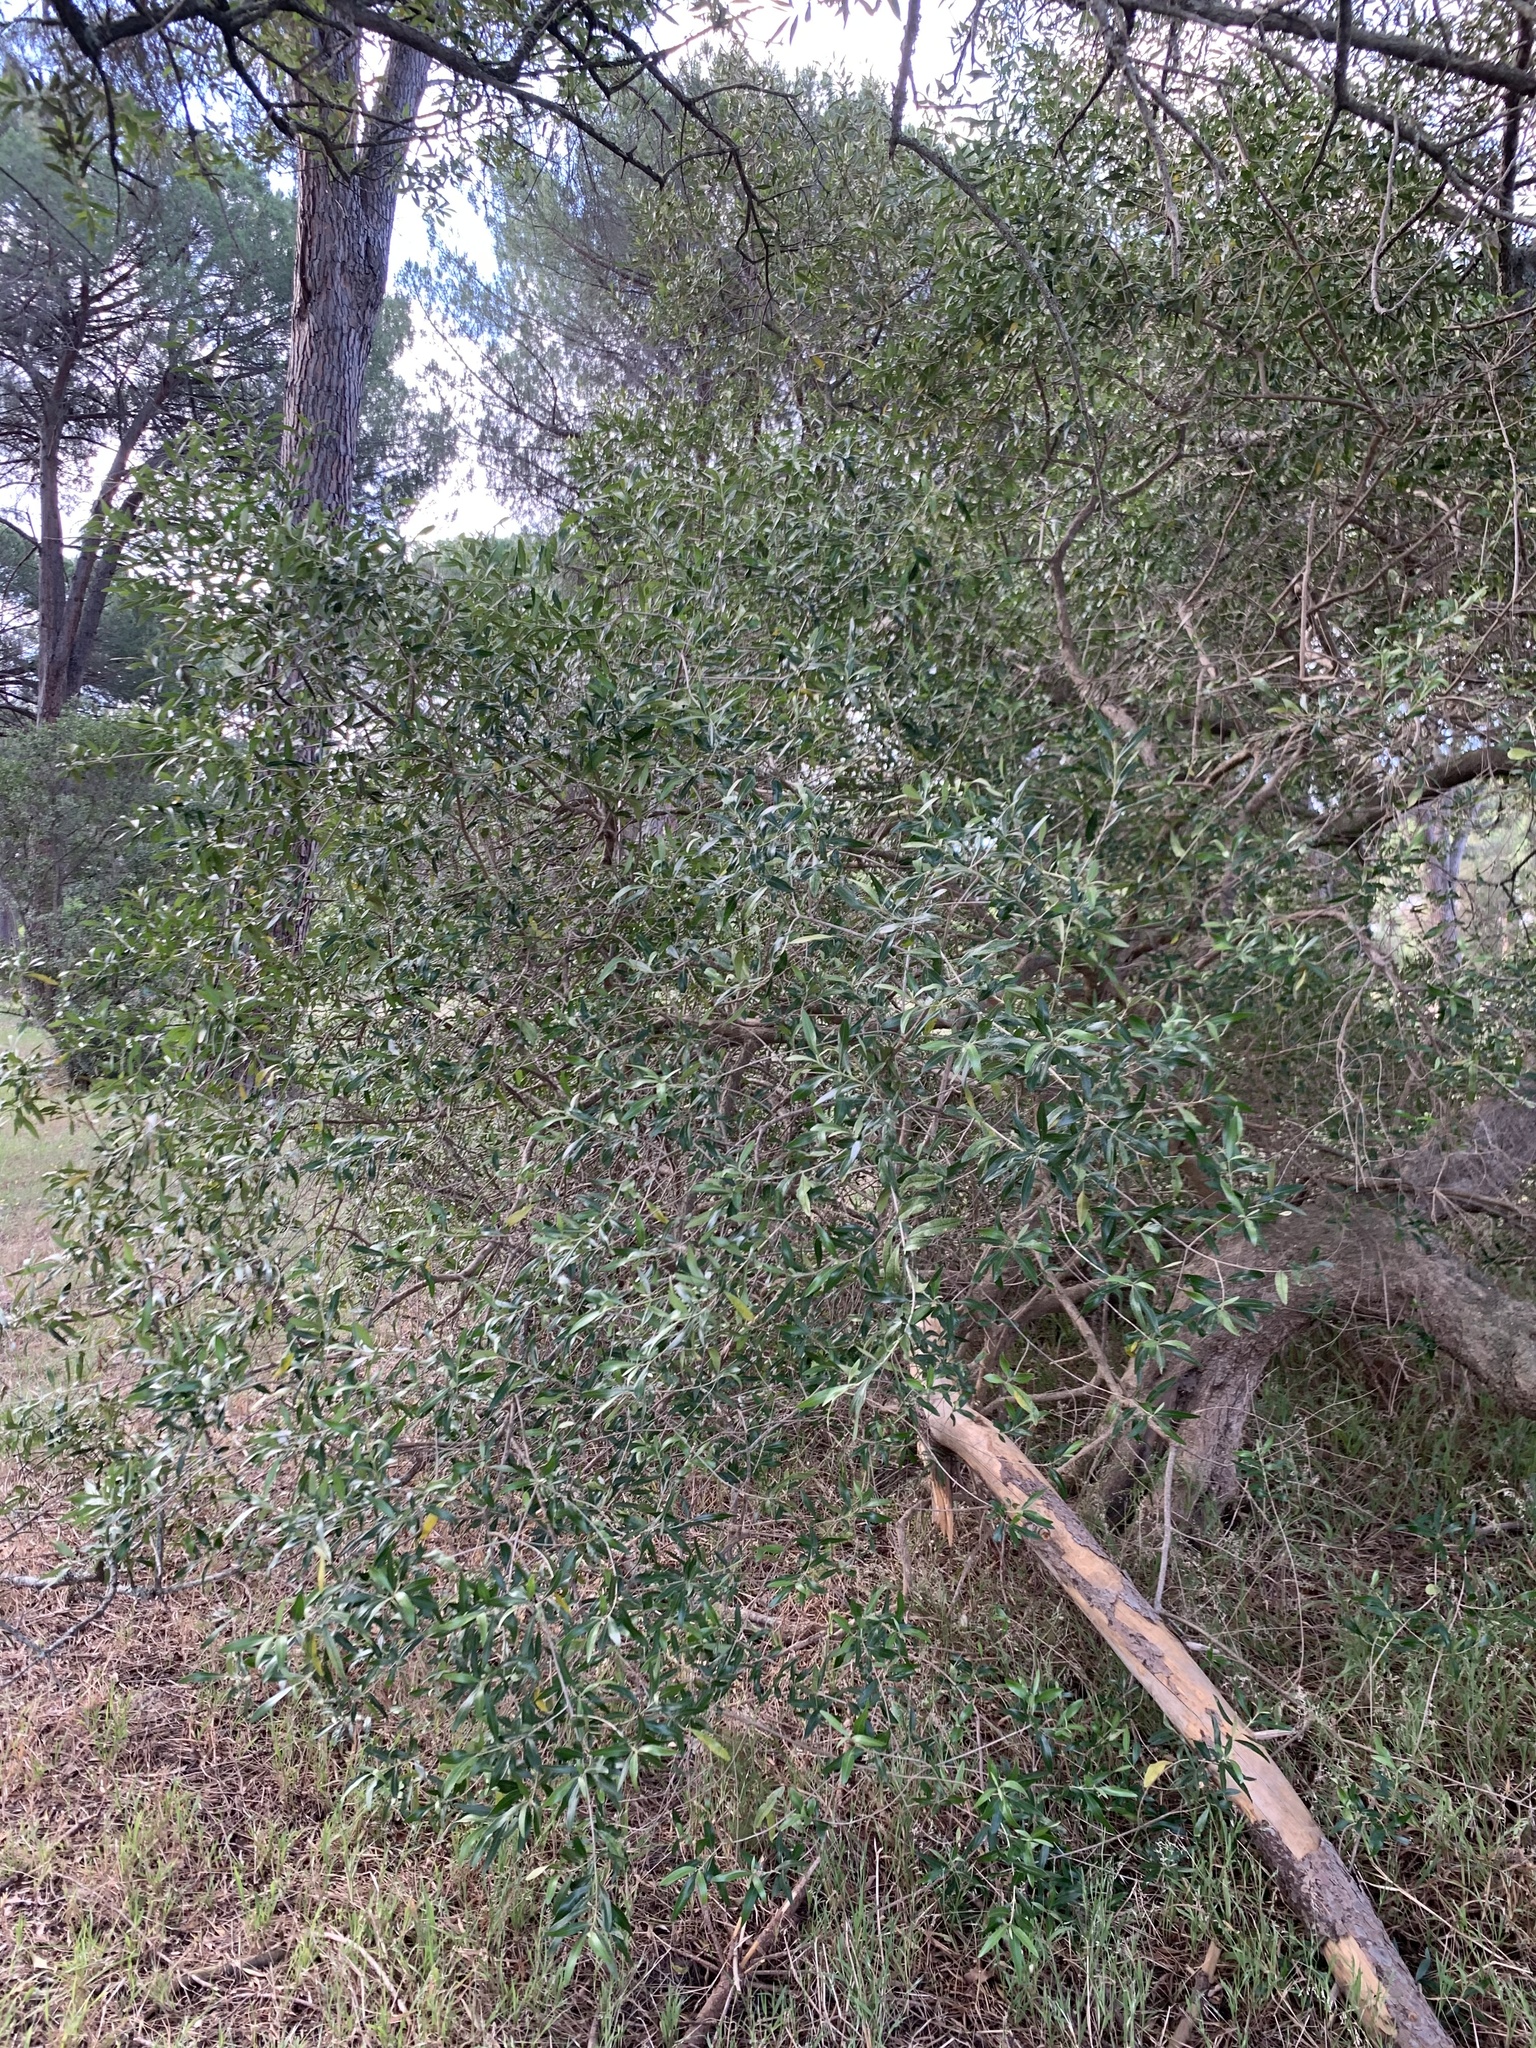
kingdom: Plantae
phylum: Tracheophyta
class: Magnoliopsida
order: Lamiales
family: Oleaceae
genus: Olea
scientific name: Olea europaea
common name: Olive
